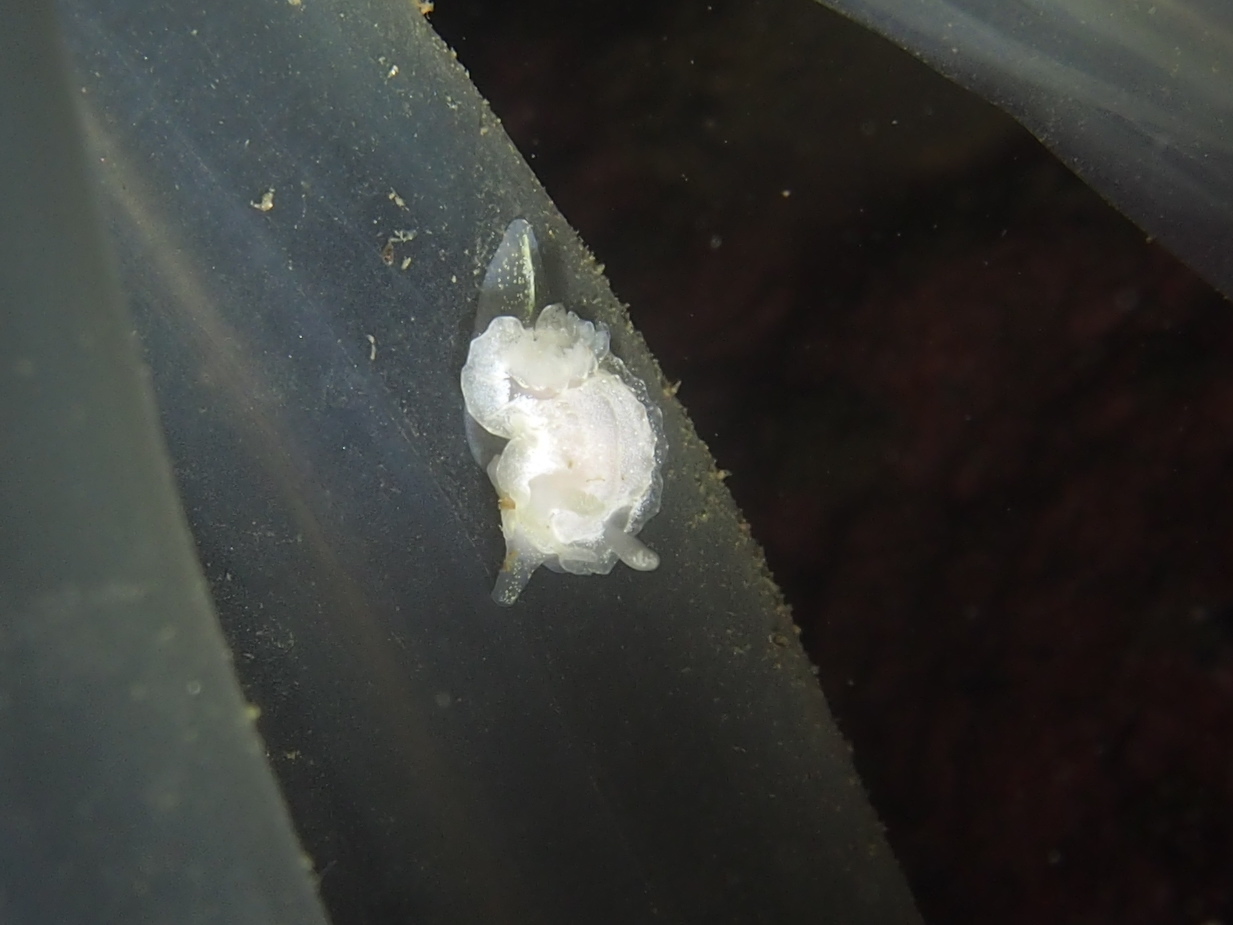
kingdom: Animalia
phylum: Mollusca
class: Gastropoda
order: Nudibranchia
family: Goniodorididae
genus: Okenia
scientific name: Okenia
